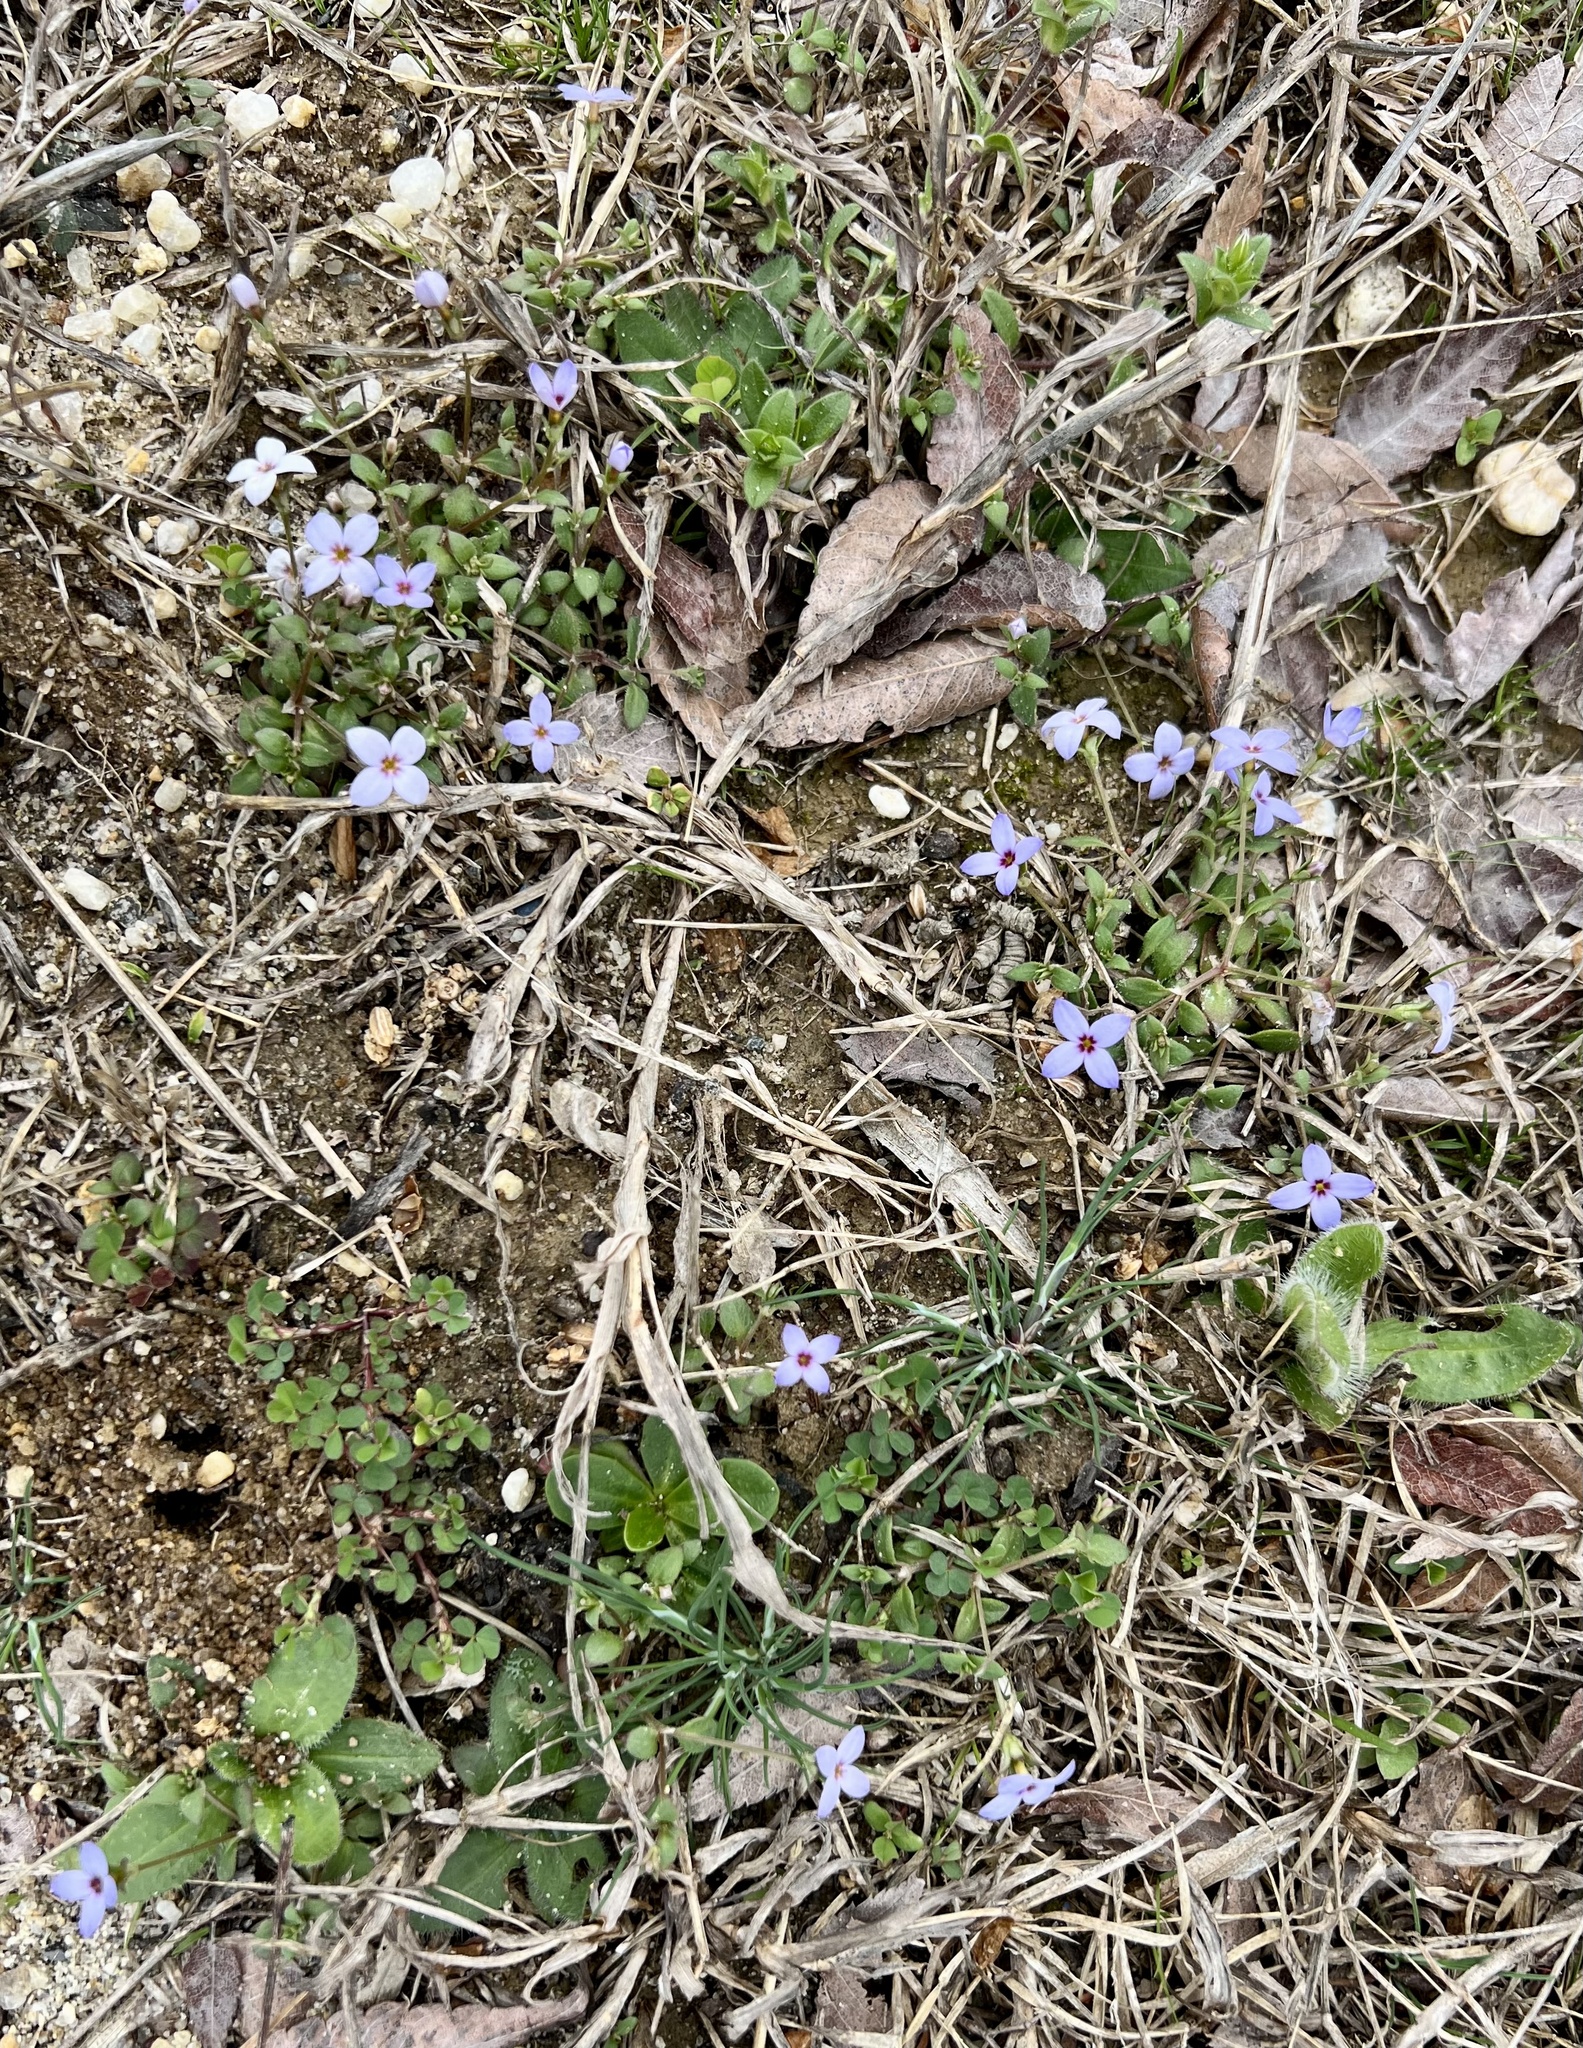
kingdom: Plantae
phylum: Tracheophyta
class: Magnoliopsida
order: Gentianales
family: Rubiaceae
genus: Houstonia
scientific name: Houstonia pusilla
